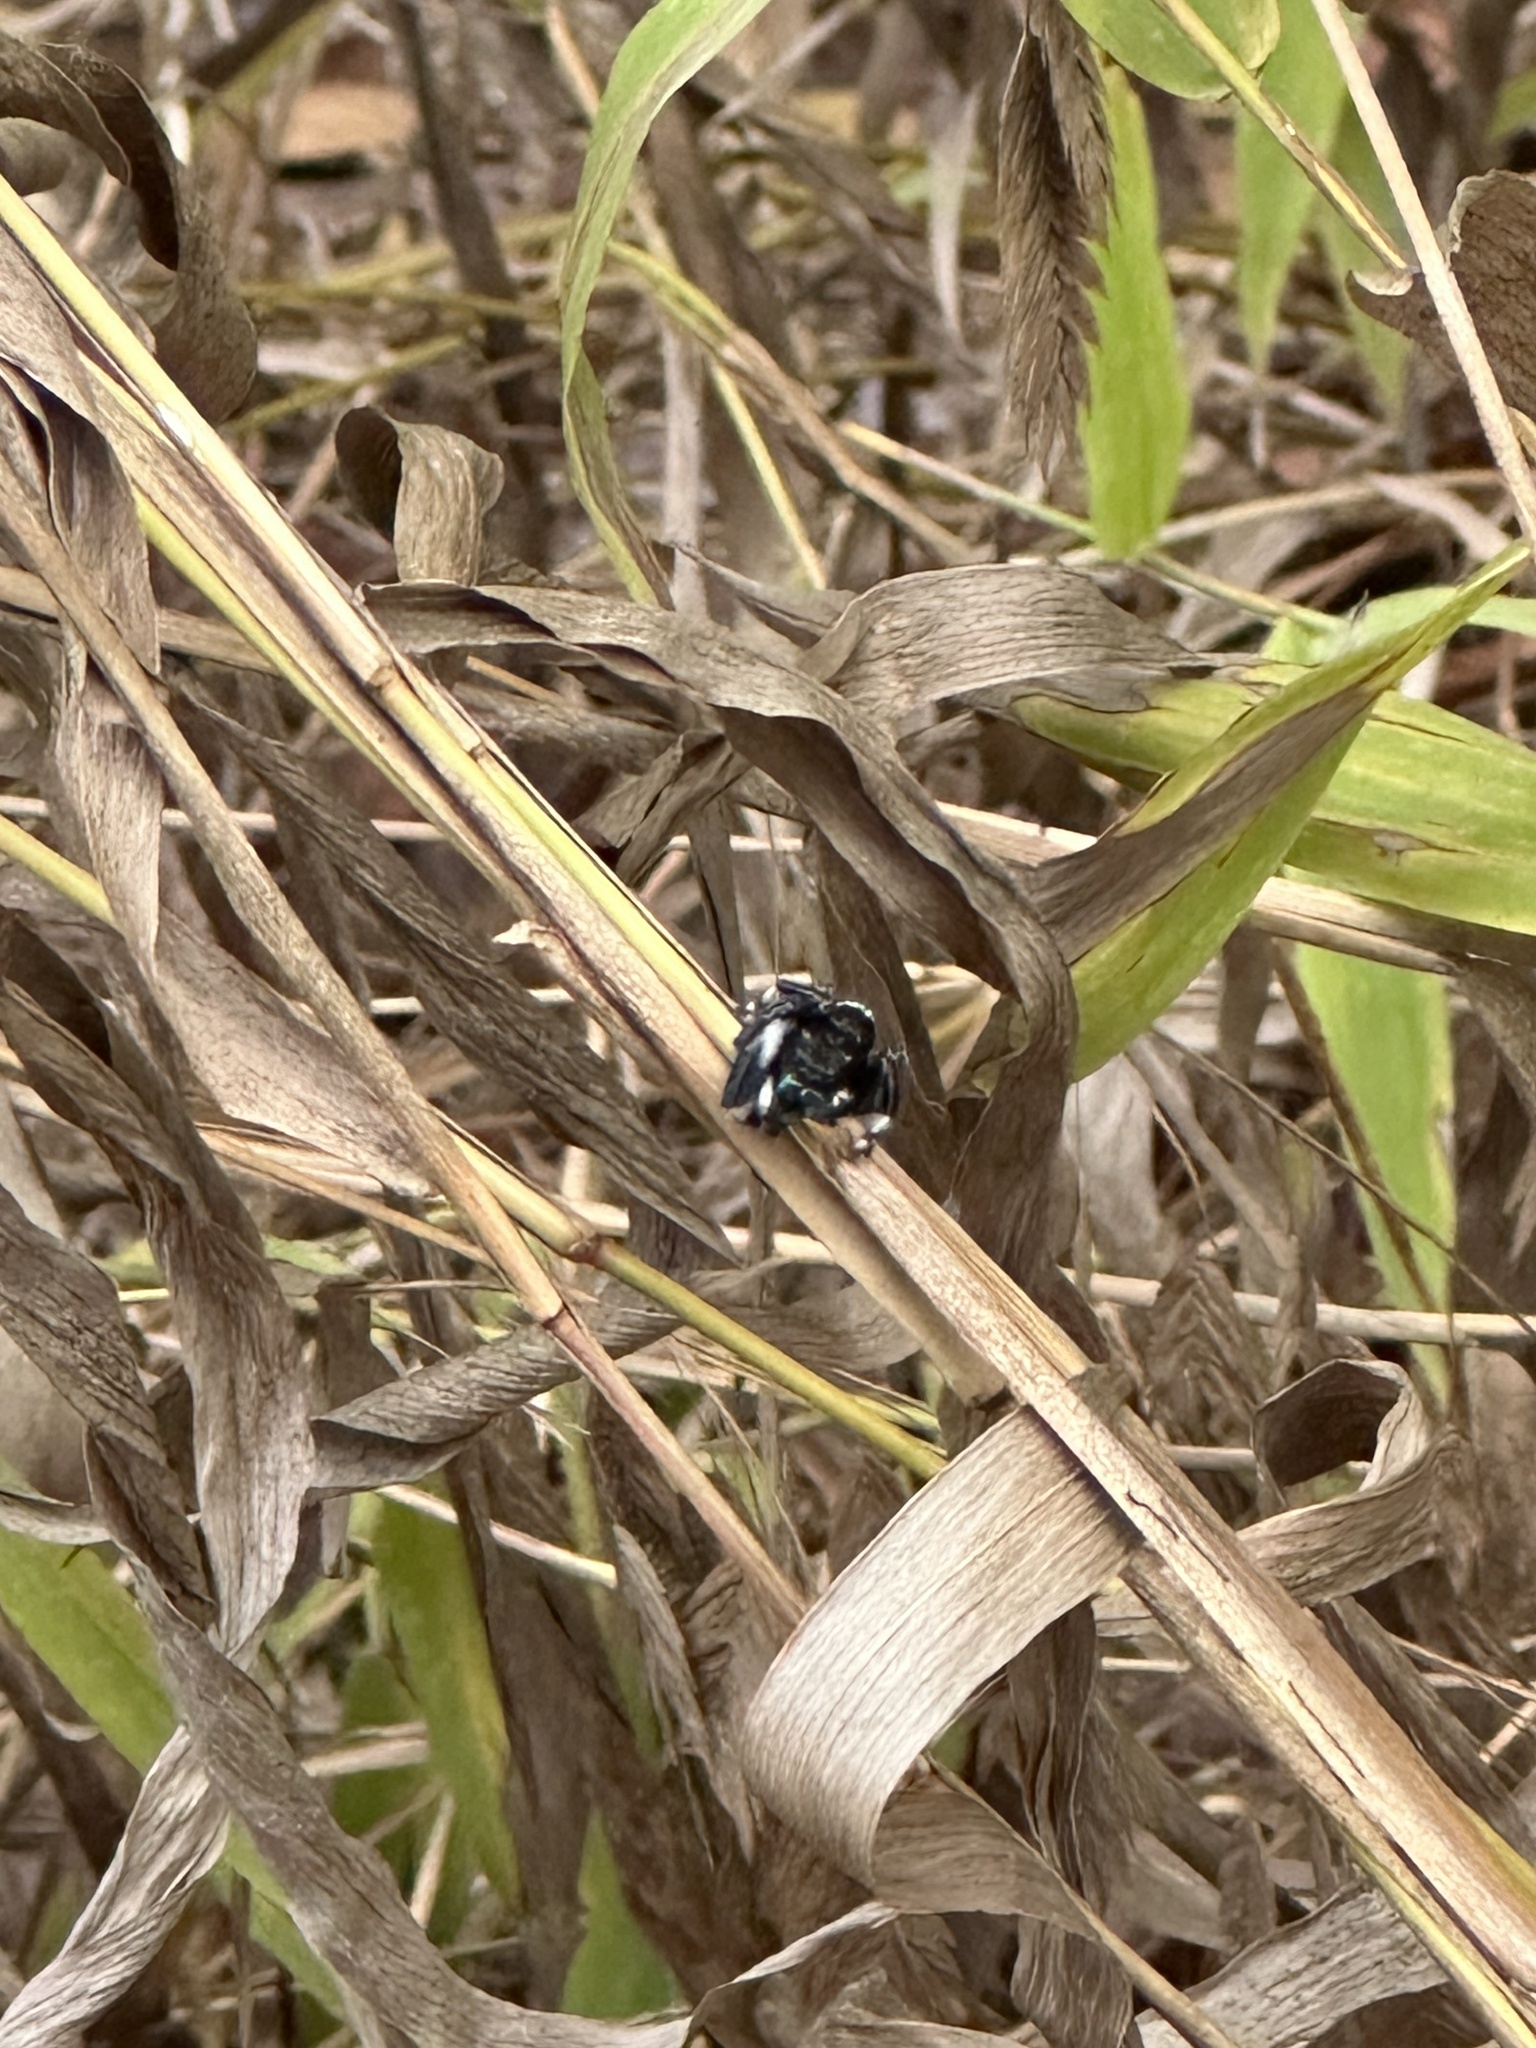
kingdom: Animalia
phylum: Arthropoda
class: Arachnida
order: Araneae
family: Salticidae
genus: Phidippus
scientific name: Phidippus audax
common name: Bold jumper
